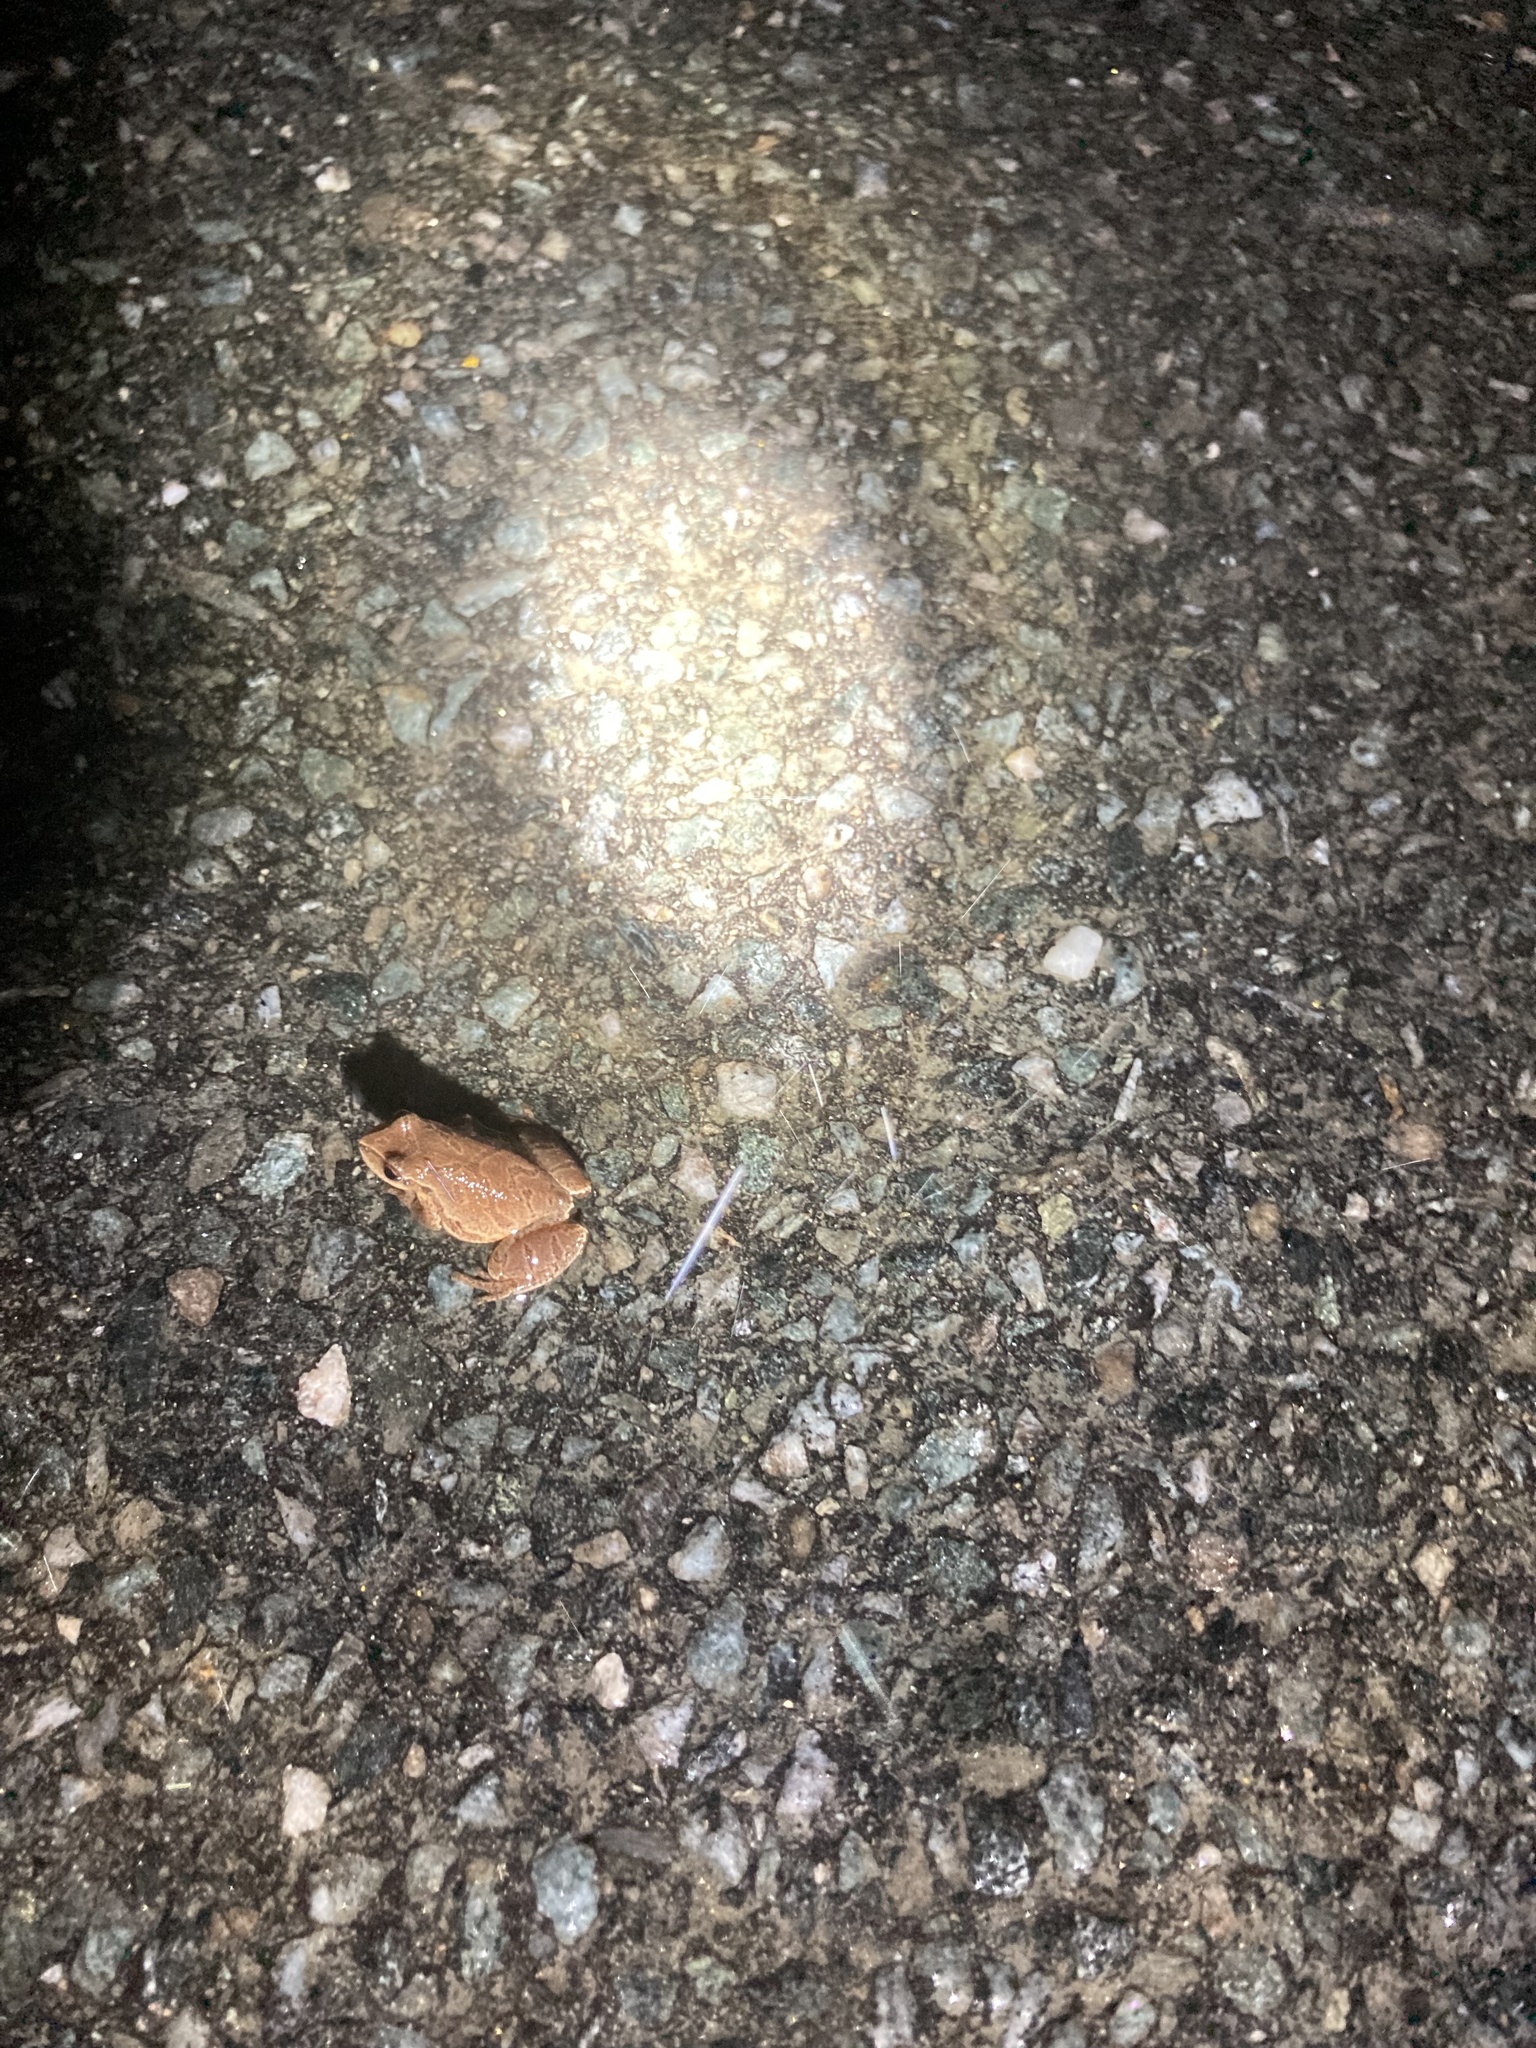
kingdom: Animalia
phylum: Chordata
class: Amphibia
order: Anura
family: Hylidae
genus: Pseudacris
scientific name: Pseudacris crucifer
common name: Spring peeper
